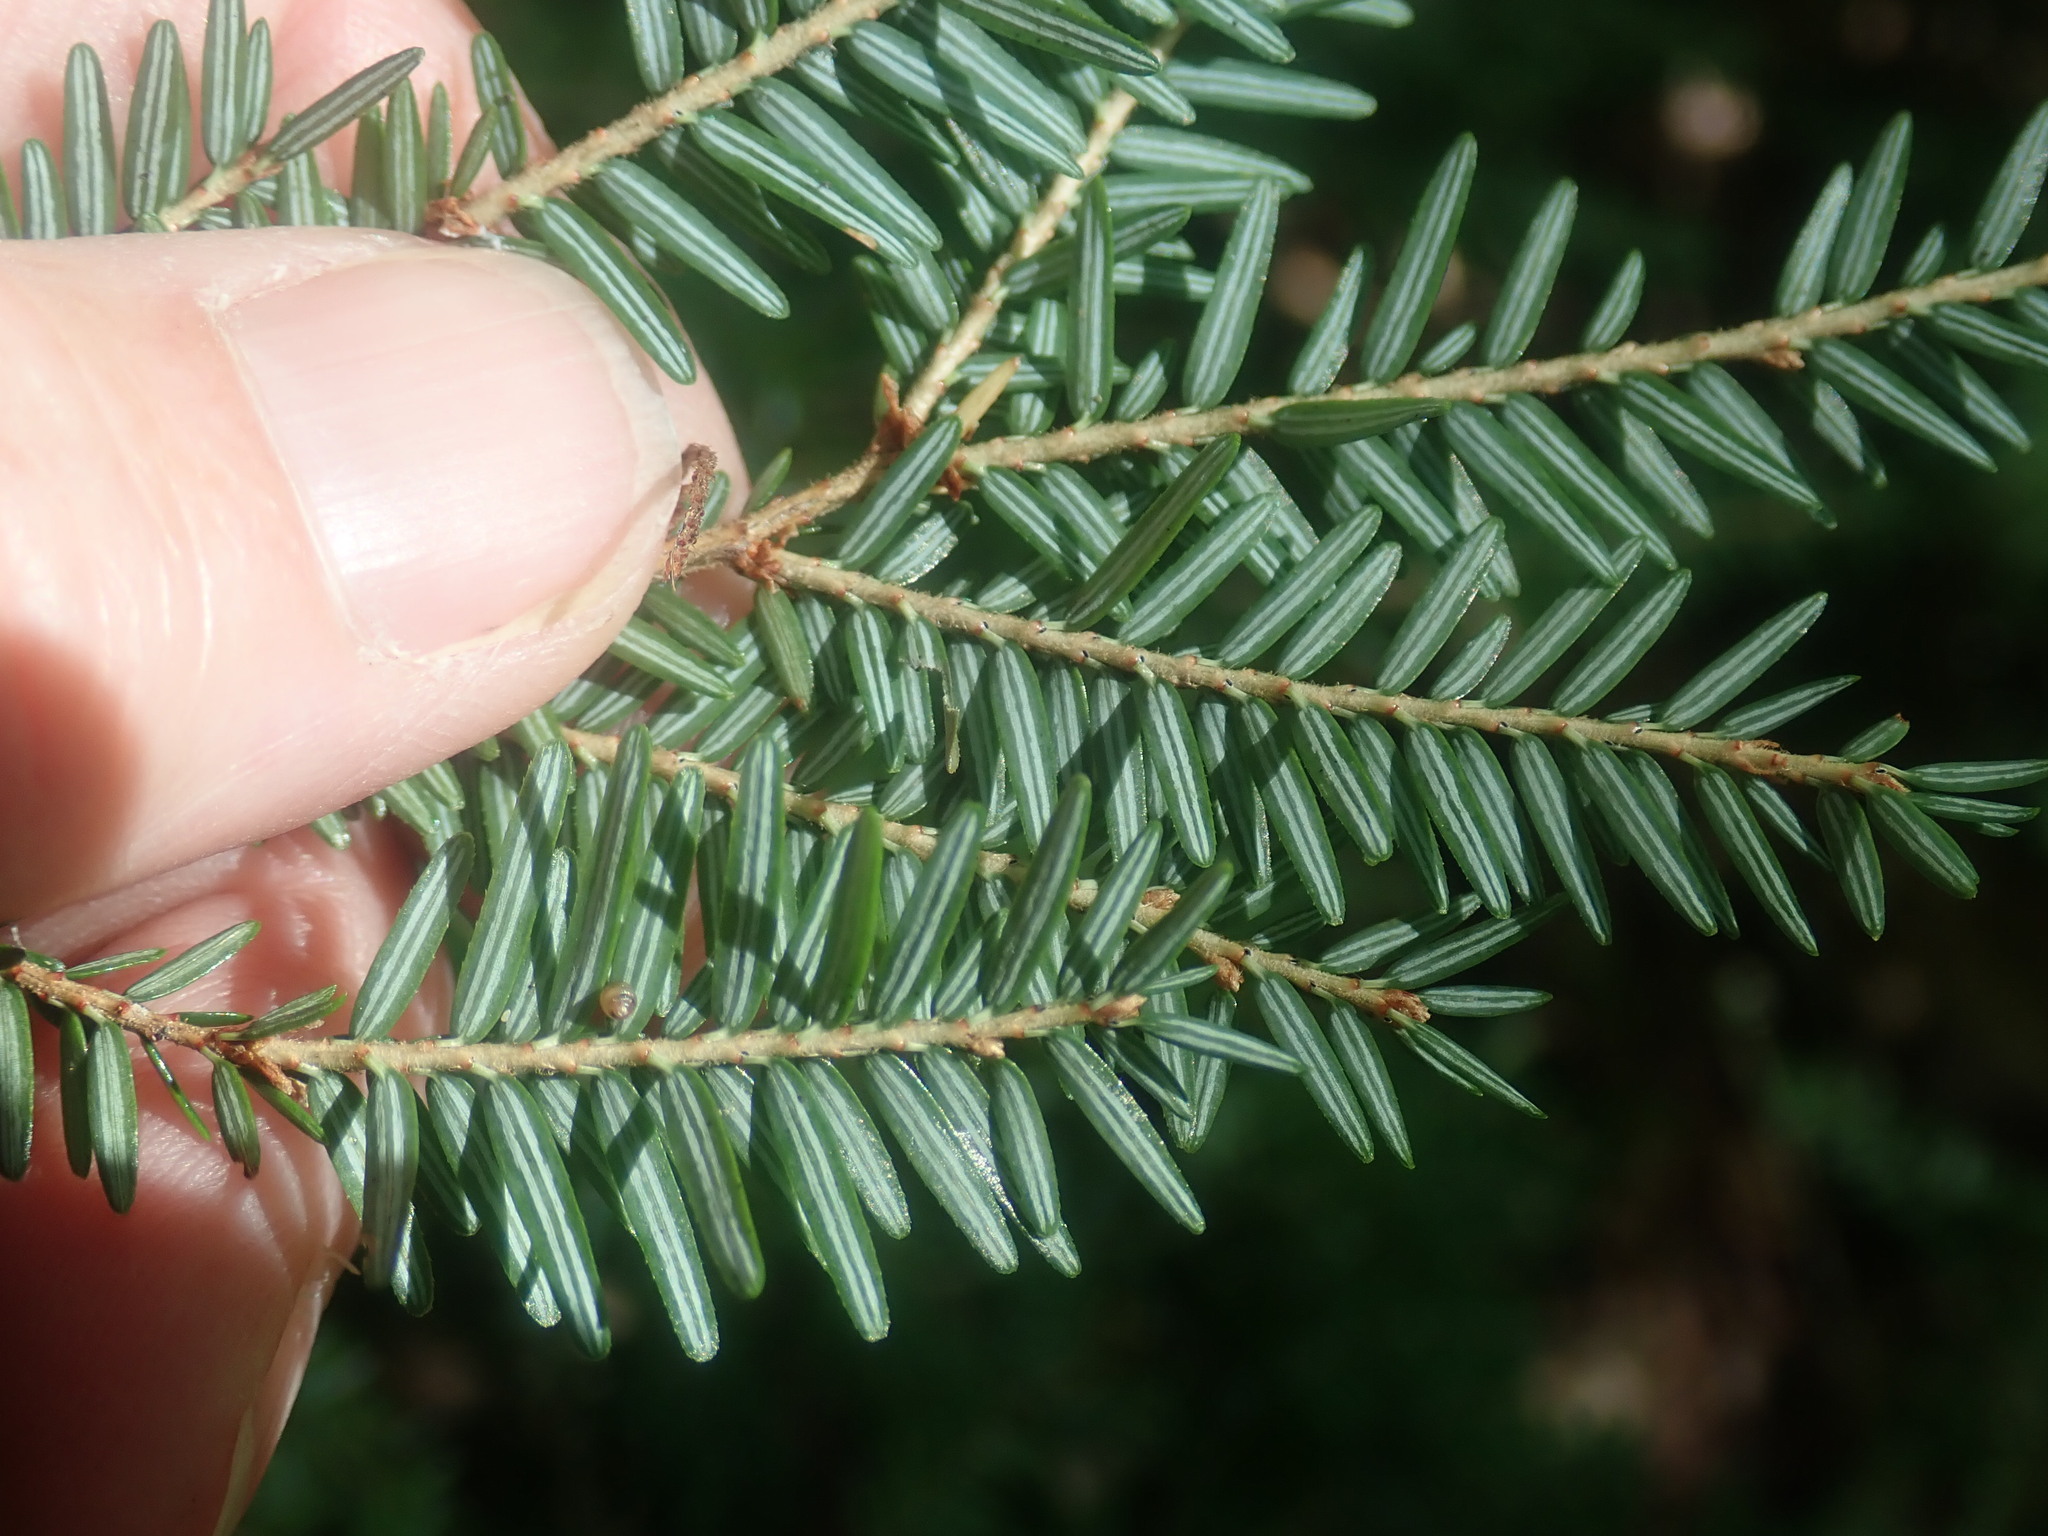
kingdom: Plantae
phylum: Tracheophyta
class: Pinopsida
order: Pinales
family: Pinaceae
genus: Tsuga
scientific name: Tsuga canadensis
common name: Eastern hemlock
